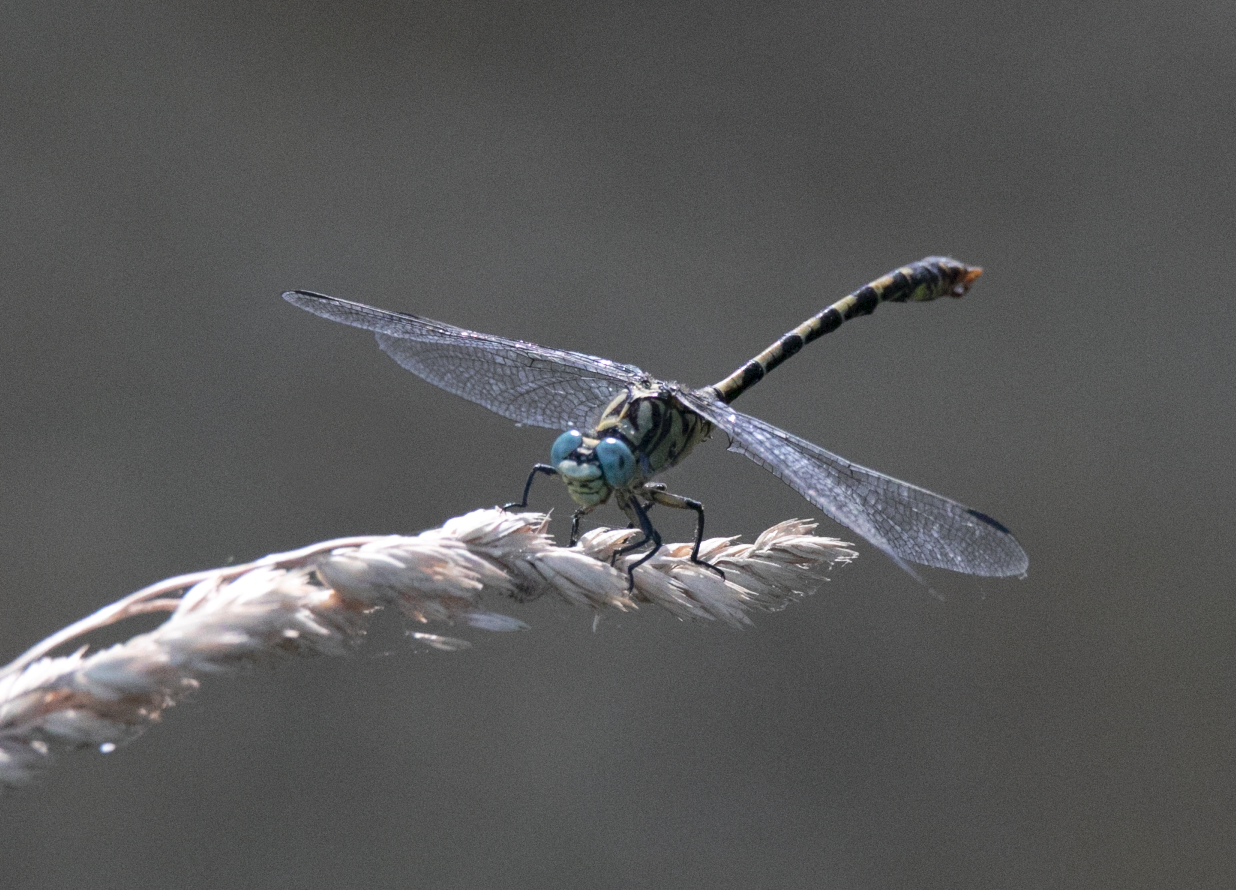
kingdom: Animalia
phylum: Arthropoda
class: Insecta
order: Odonata
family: Gomphidae
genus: Onychogomphus
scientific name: Onychogomphus forcipatus
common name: Small pincertail
